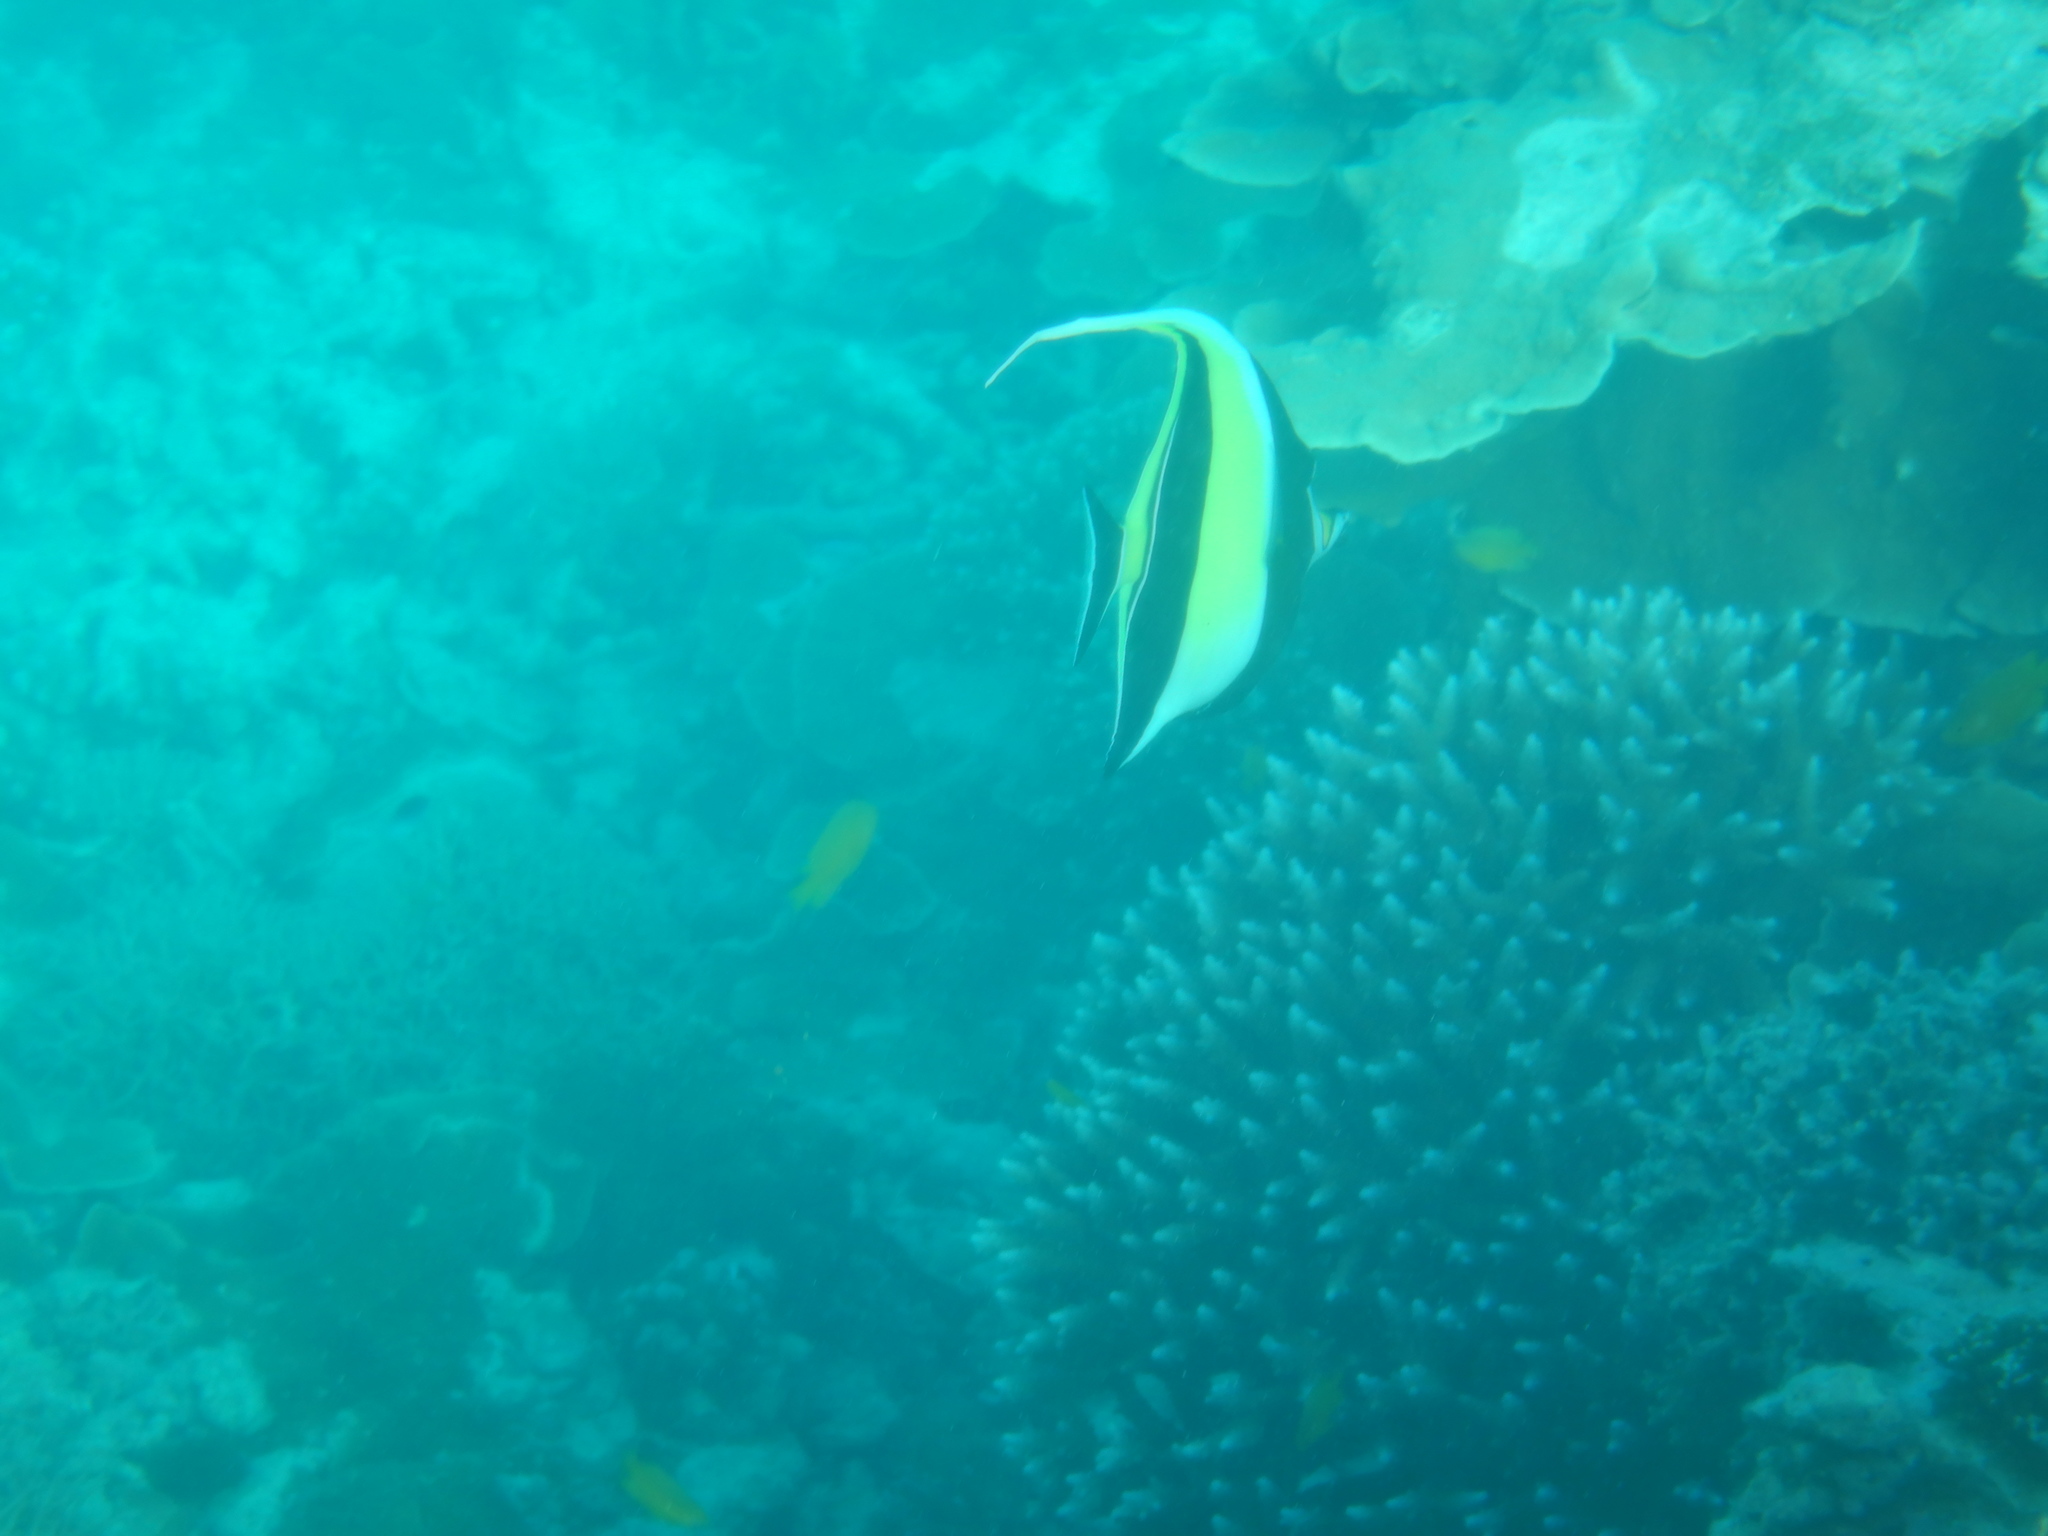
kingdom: Animalia
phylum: Chordata
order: Perciformes
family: Zanclidae
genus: Zanclus
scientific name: Zanclus cornutus
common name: Moorish idol
